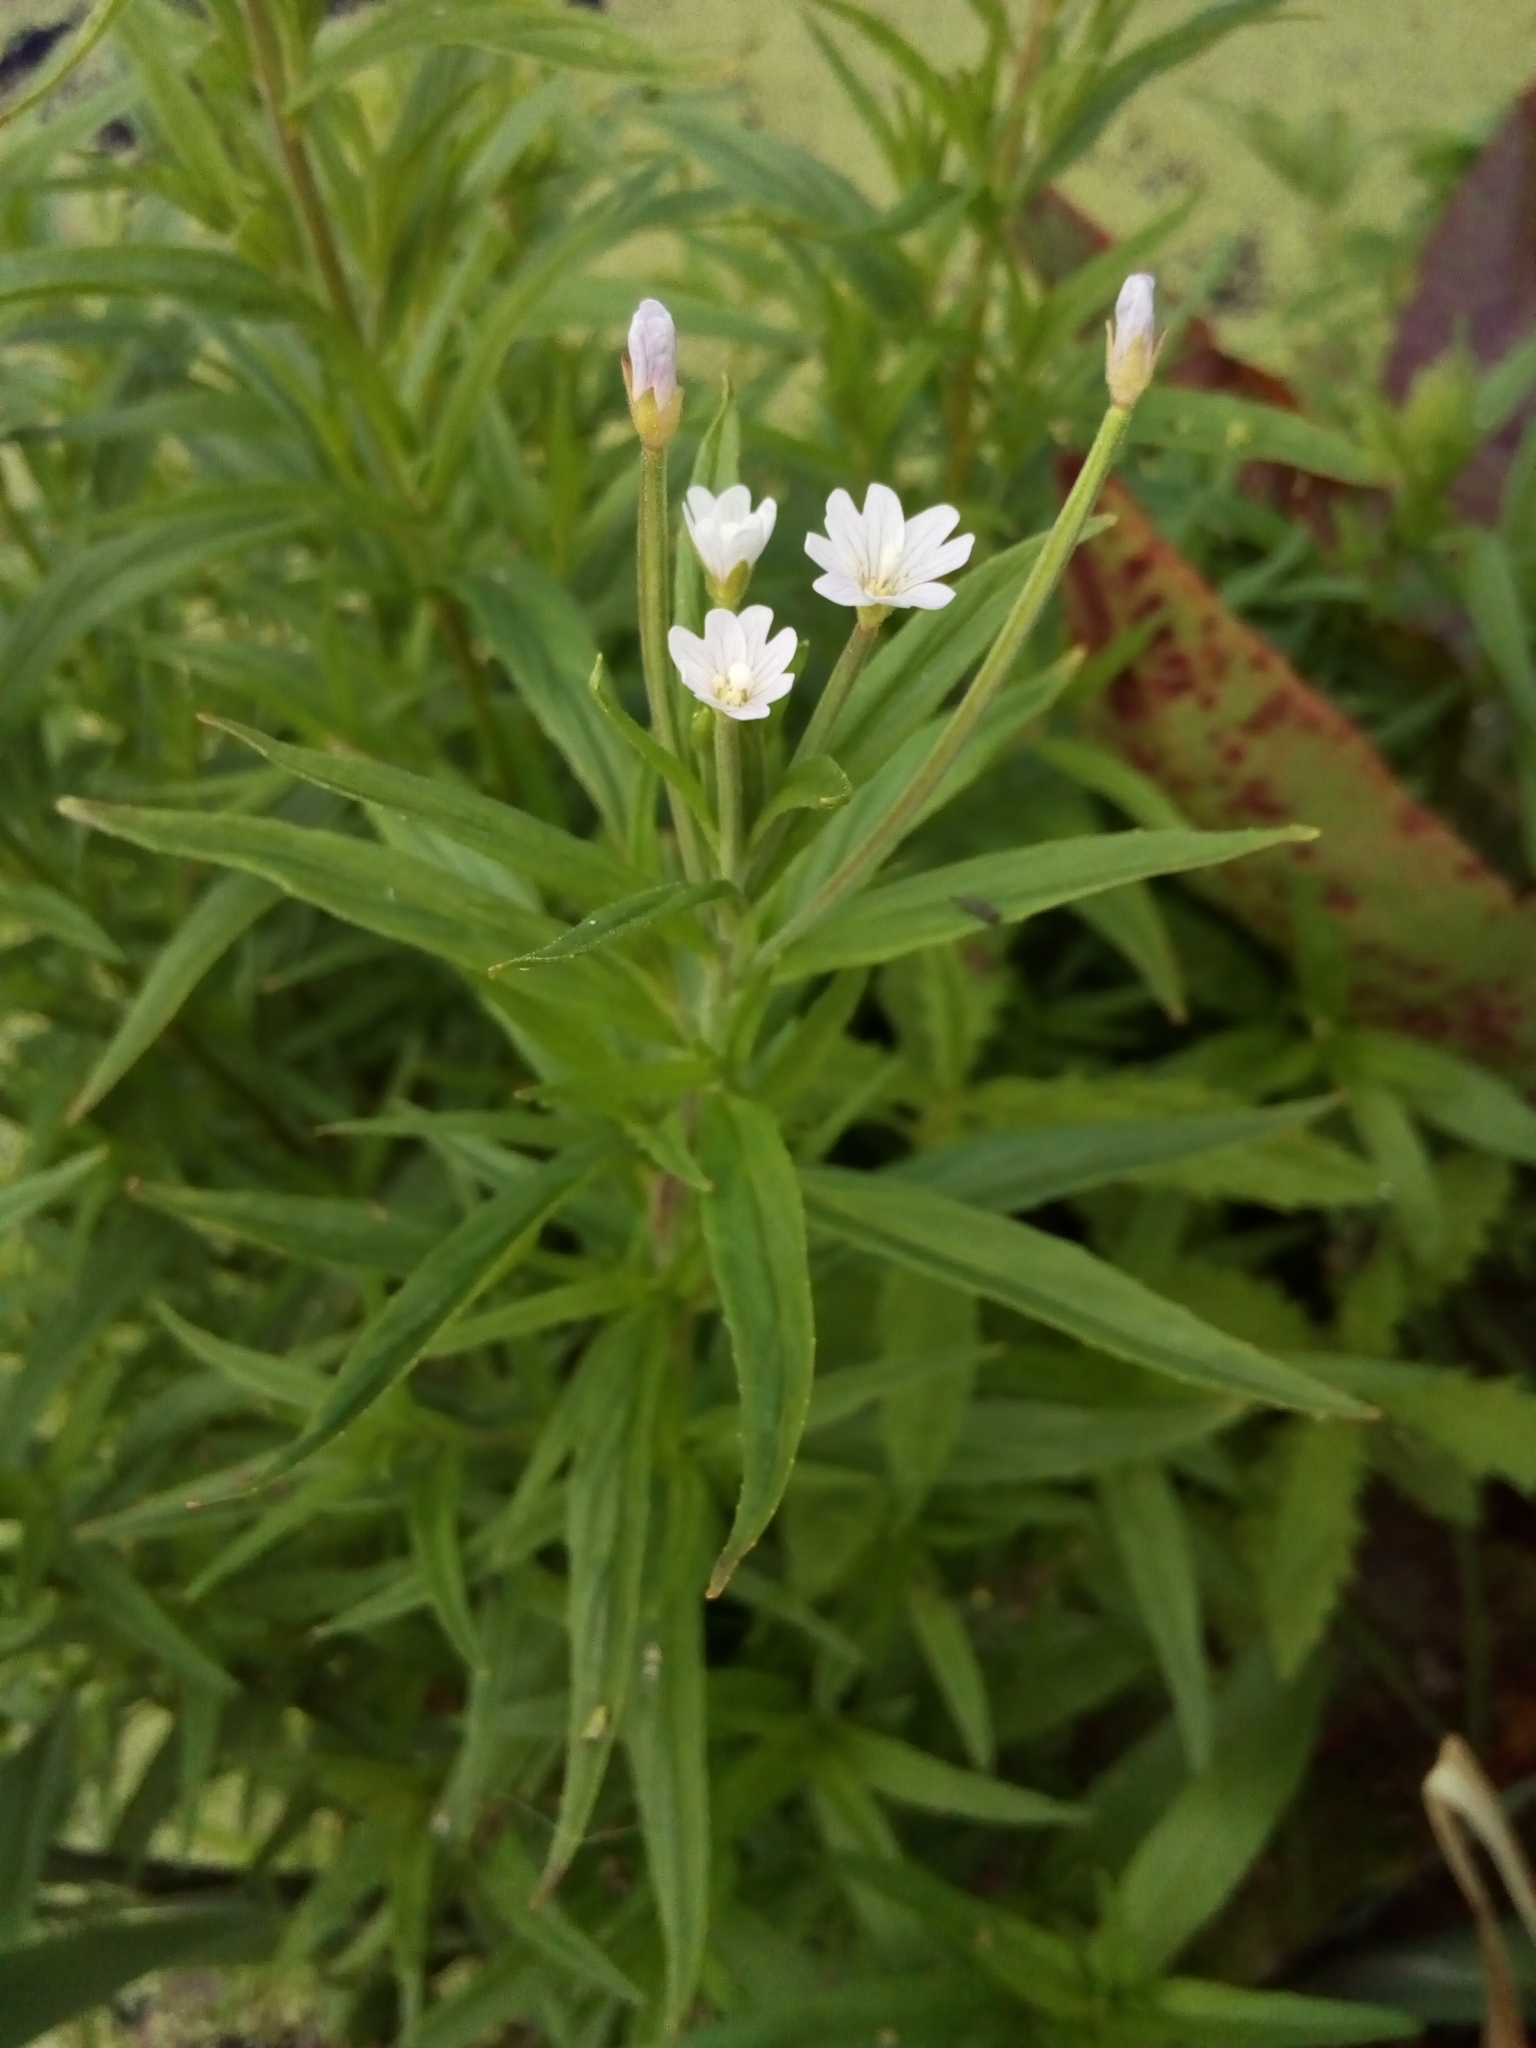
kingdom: Plantae
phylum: Tracheophyta
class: Magnoliopsida
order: Myrtales
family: Onagraceae
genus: Epilobium
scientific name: Epilobium palustre
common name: Marsh willowherb
